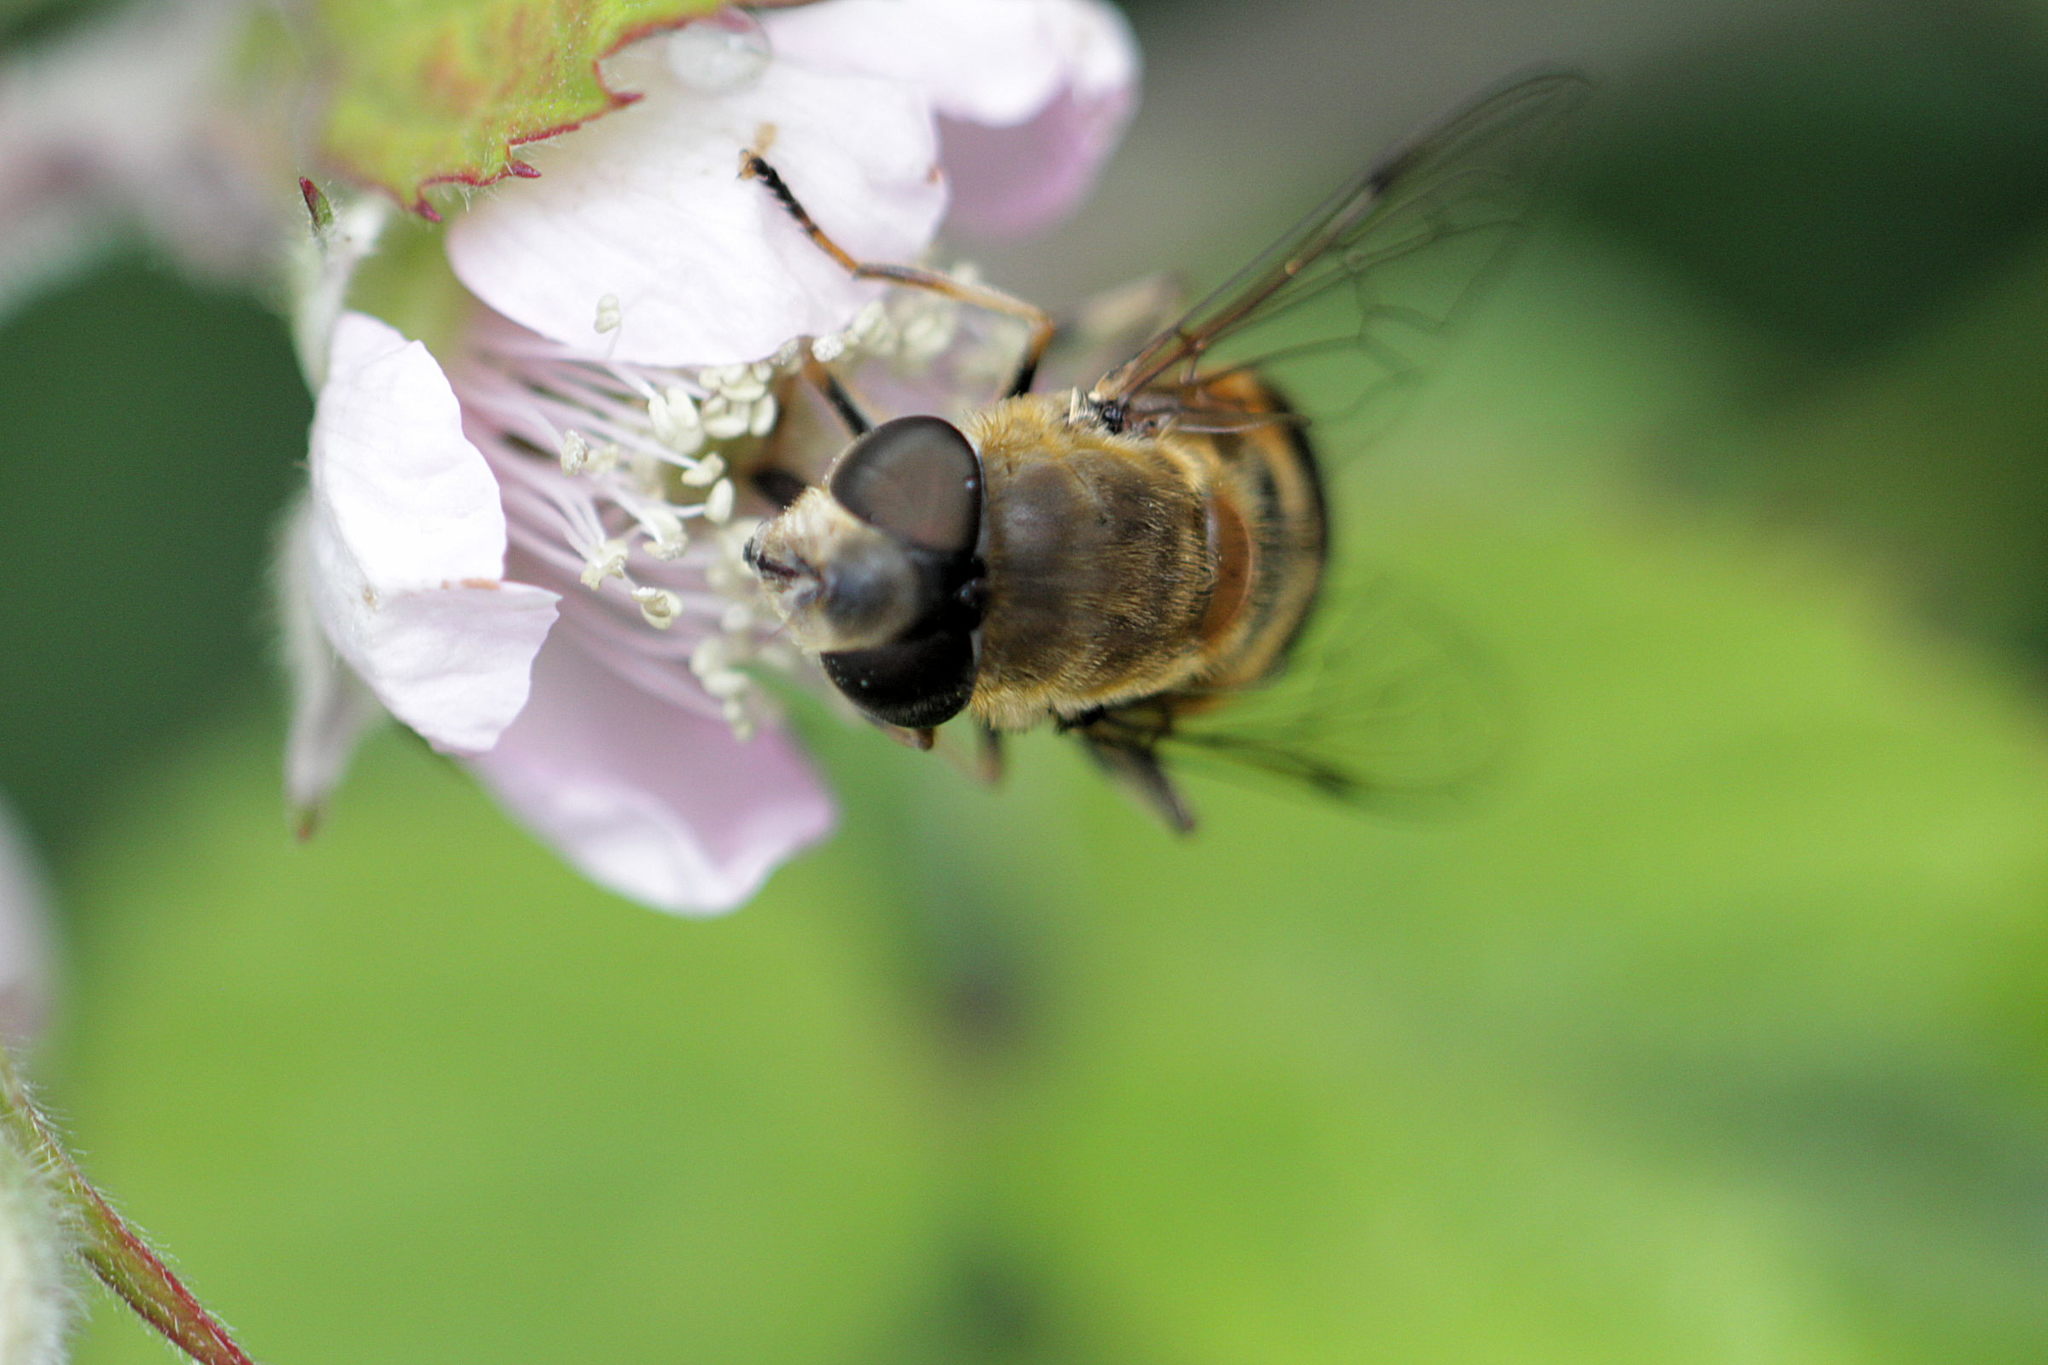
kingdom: Animalia
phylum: Arthropoda
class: Insecta
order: Diptera
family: Syrphidae
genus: Eristalis
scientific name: Eristalis pertinax
